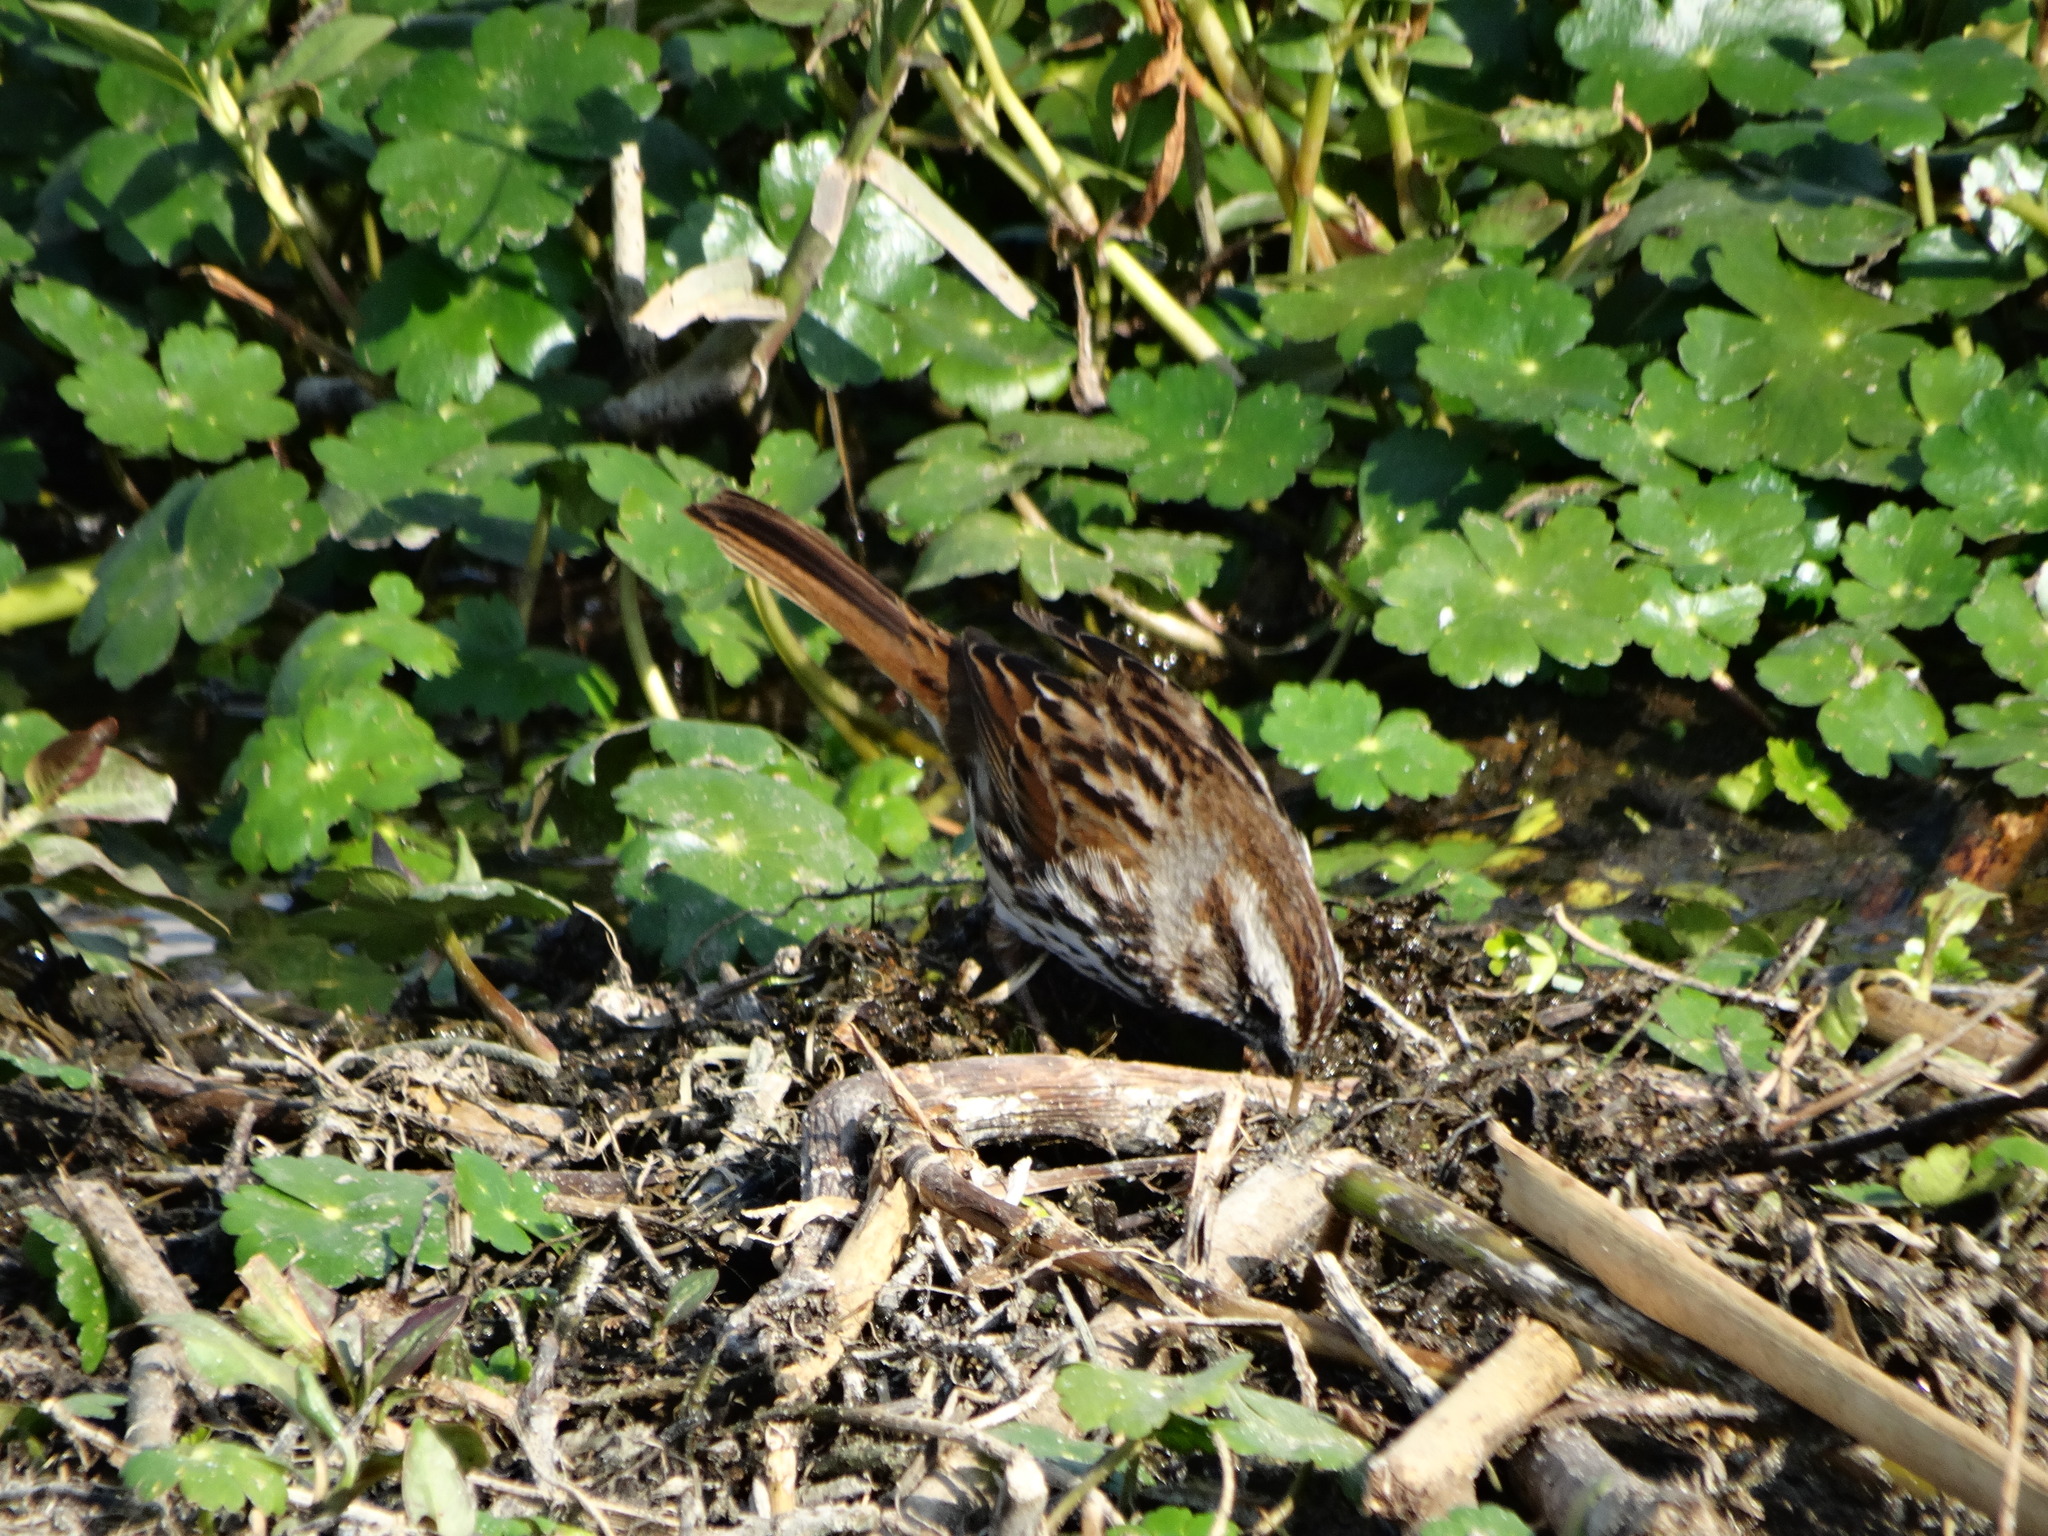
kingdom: Plantae
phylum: Tracheophyta
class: Magnoliopsida
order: Apiales
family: Araliaceae
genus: Hydrocotyle
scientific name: Hydrocotyle ranunculoides
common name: Floating pennywort
